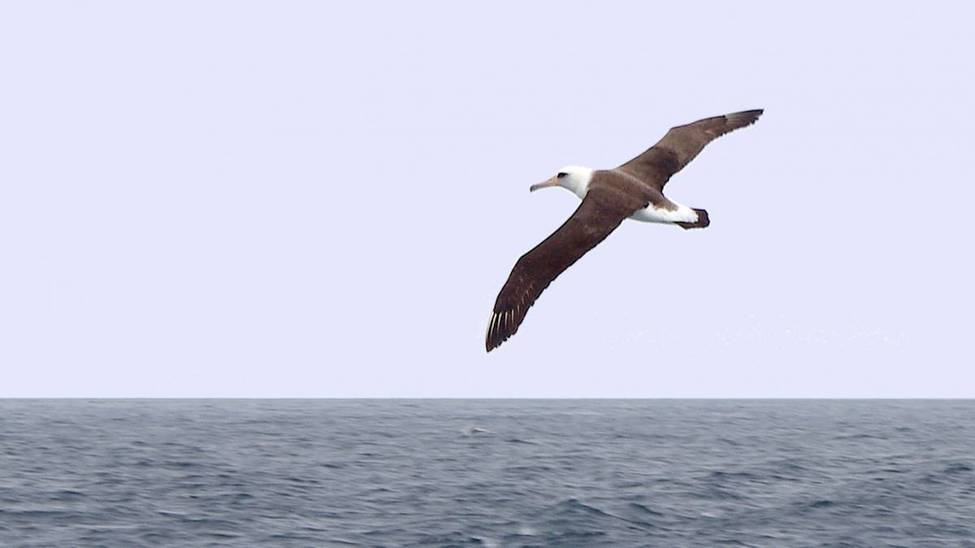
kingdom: Animalia
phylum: Chordata
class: Aves
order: Procellariiformes
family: Diomedeidae
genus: Phoebastria
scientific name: Phoebastria immutabilis
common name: Laysan albatross
